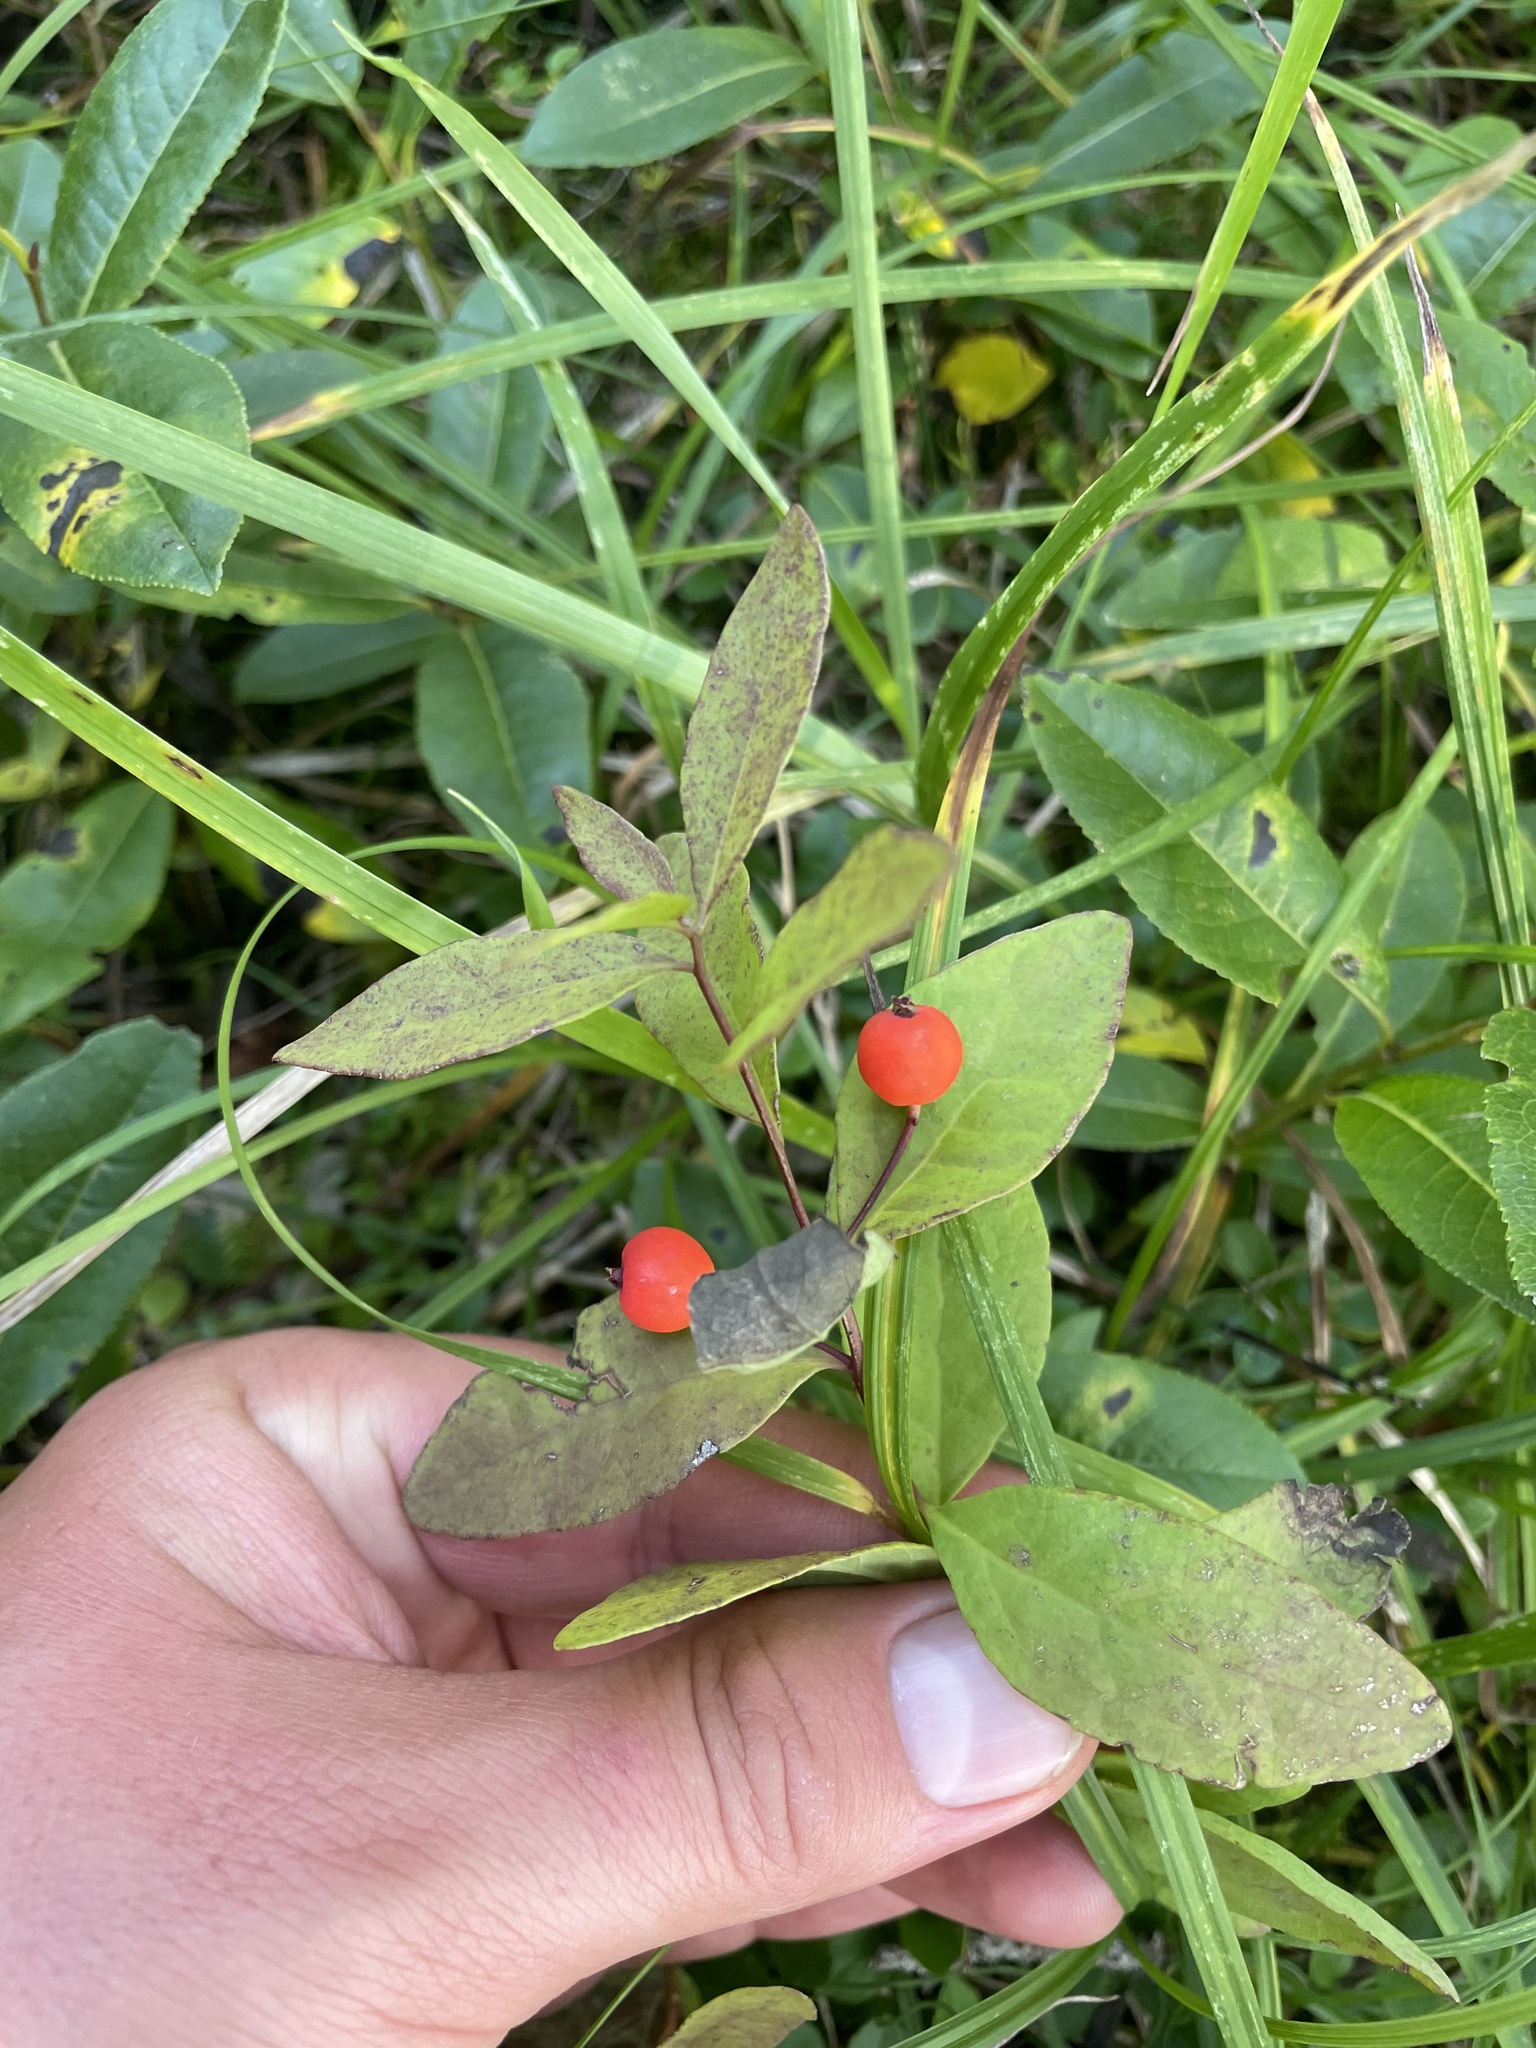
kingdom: Plantae
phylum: Tracheophyta
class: Magnoliopsida
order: Santalales
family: Comandraceae
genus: Geocaulon
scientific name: Geocaulon lividum
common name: Earthberry
